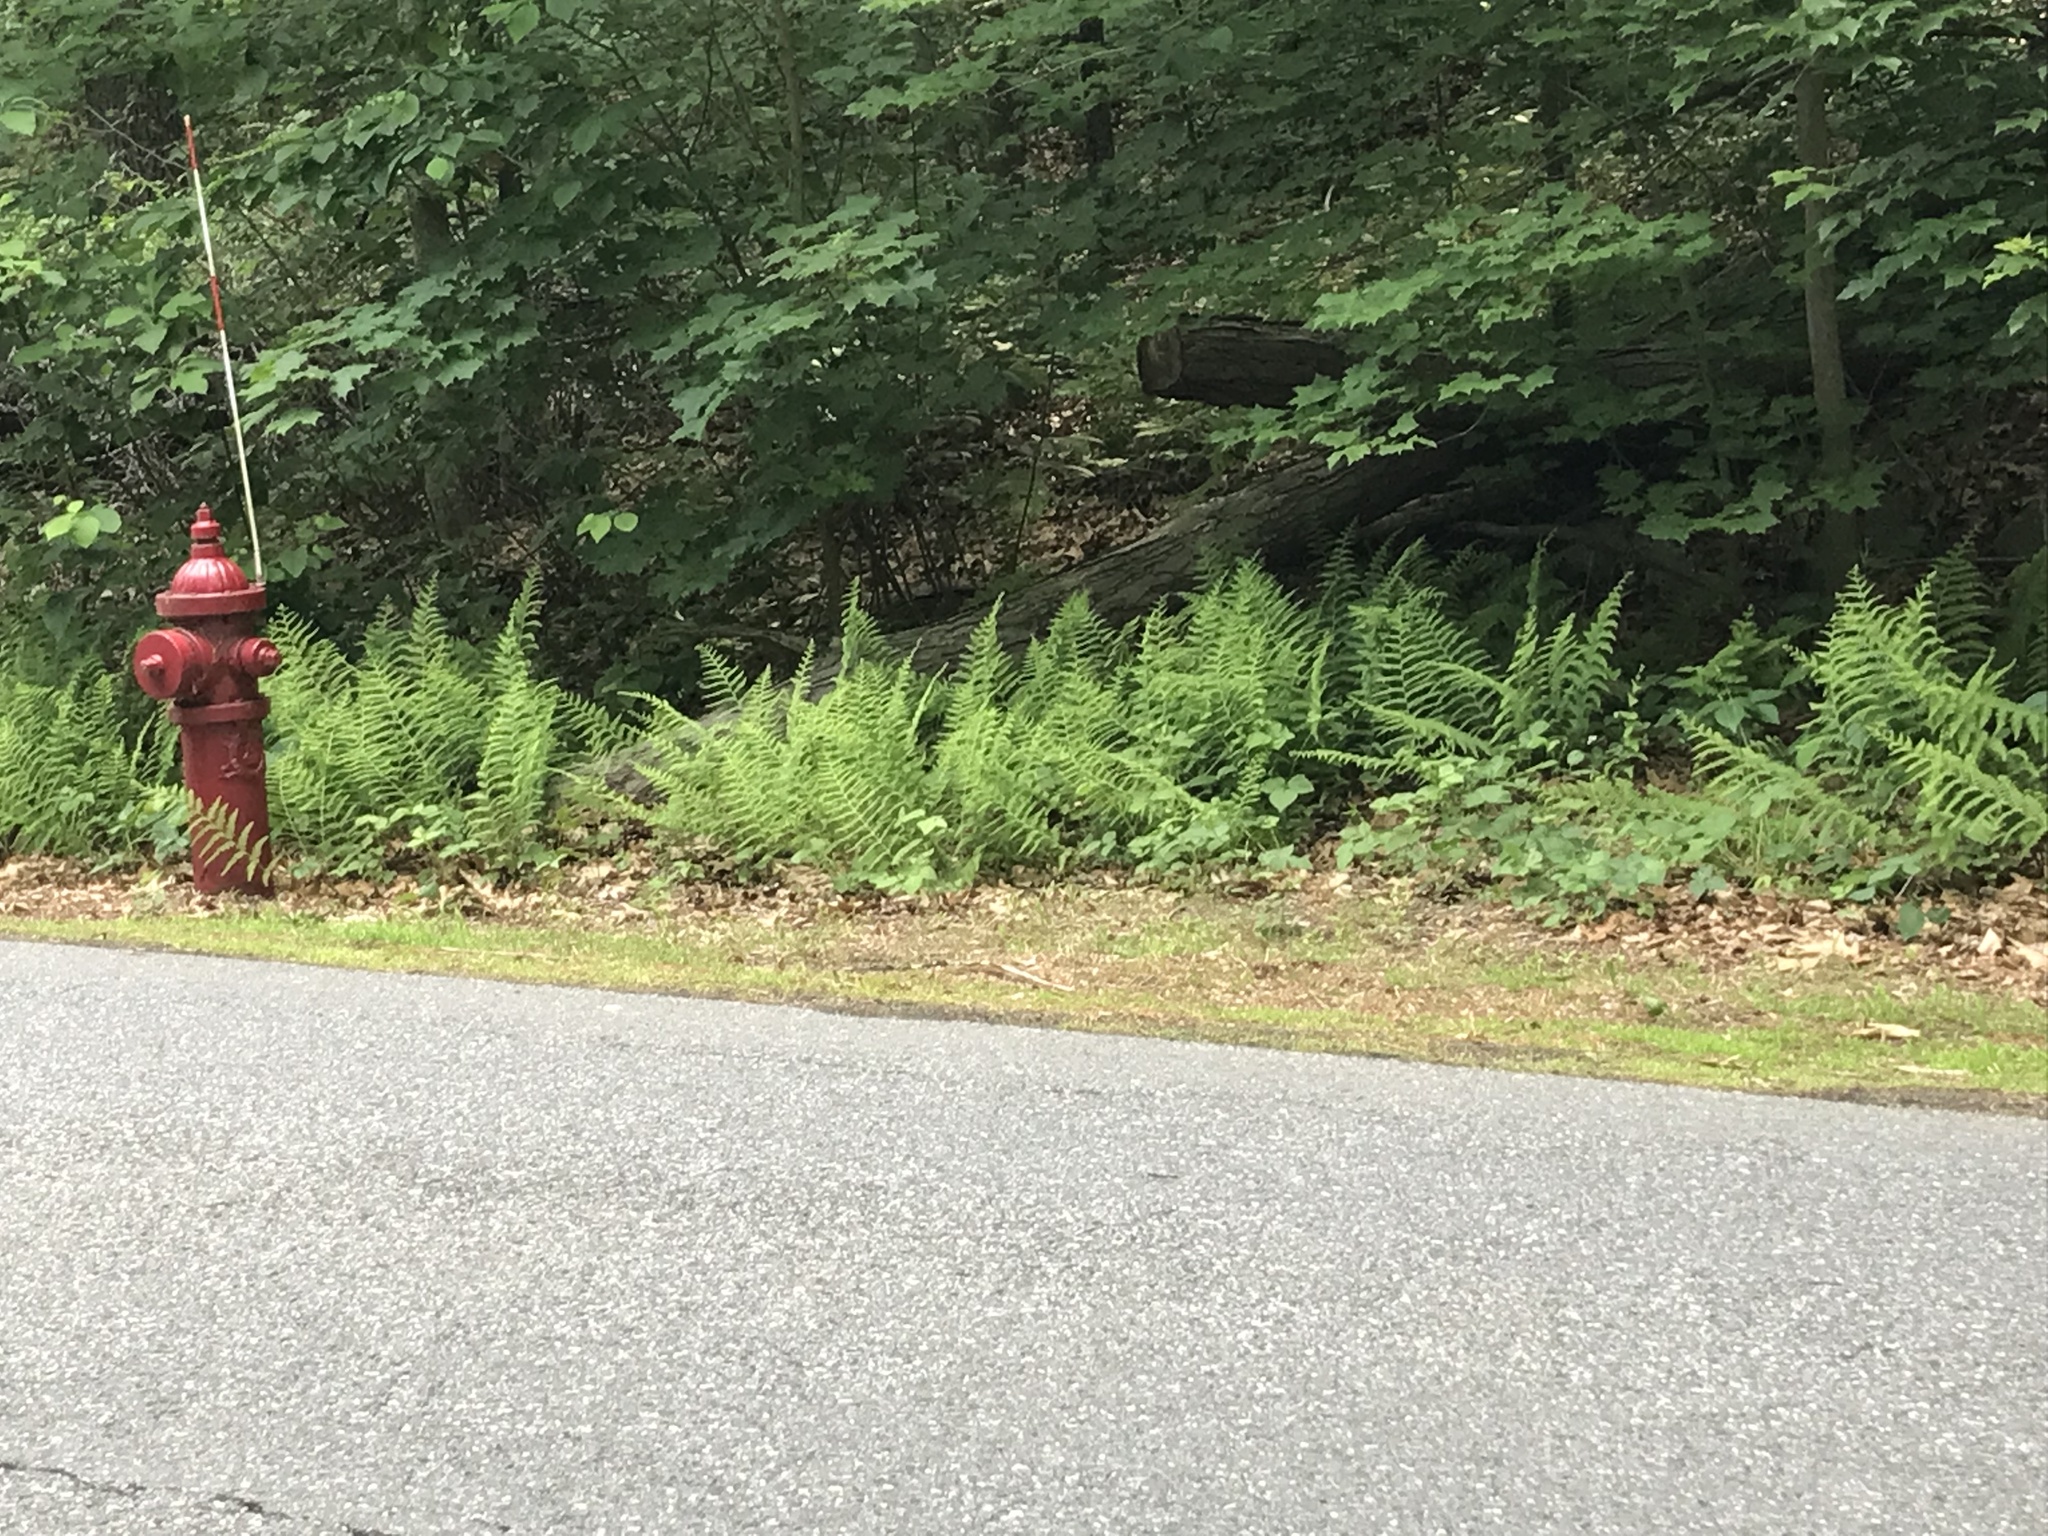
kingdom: Plantae
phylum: Tracheophyta
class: Polypodiopsida
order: Polypodiales
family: Dennstaedtiaceae
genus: Sitobolium
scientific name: Sitobolium punctilobum
